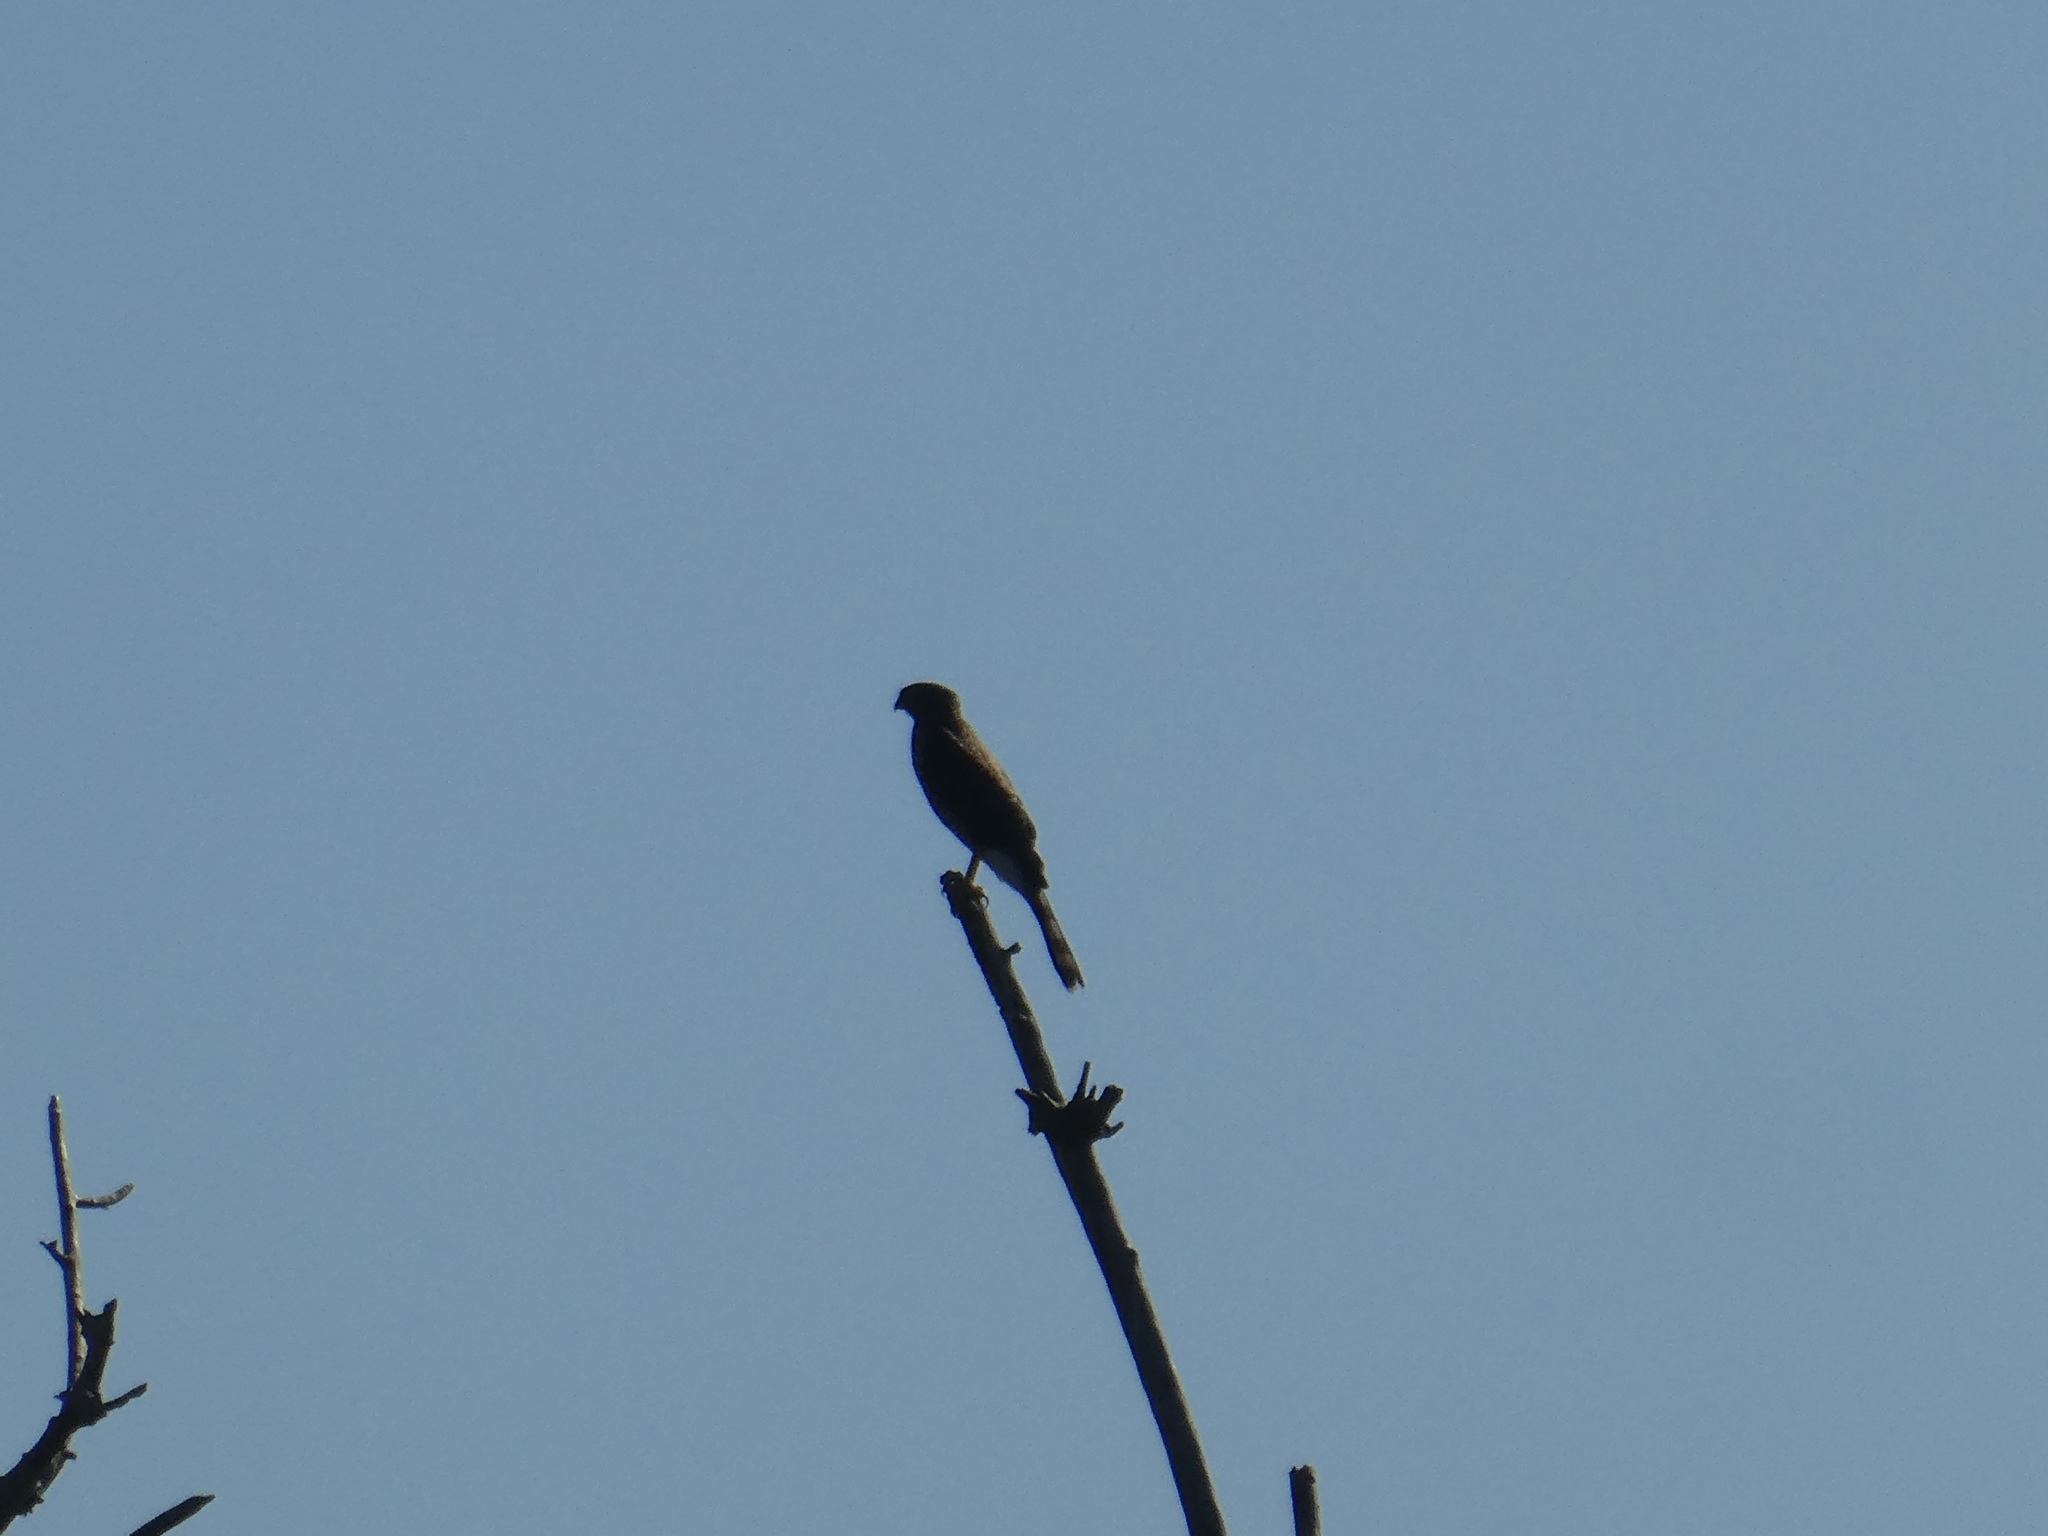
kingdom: Animalia
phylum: Chordata
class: Aves
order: Accipitriformes
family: Accipitridae
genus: Accipiter
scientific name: Accipiter cooperii
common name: Cooper's hawk
